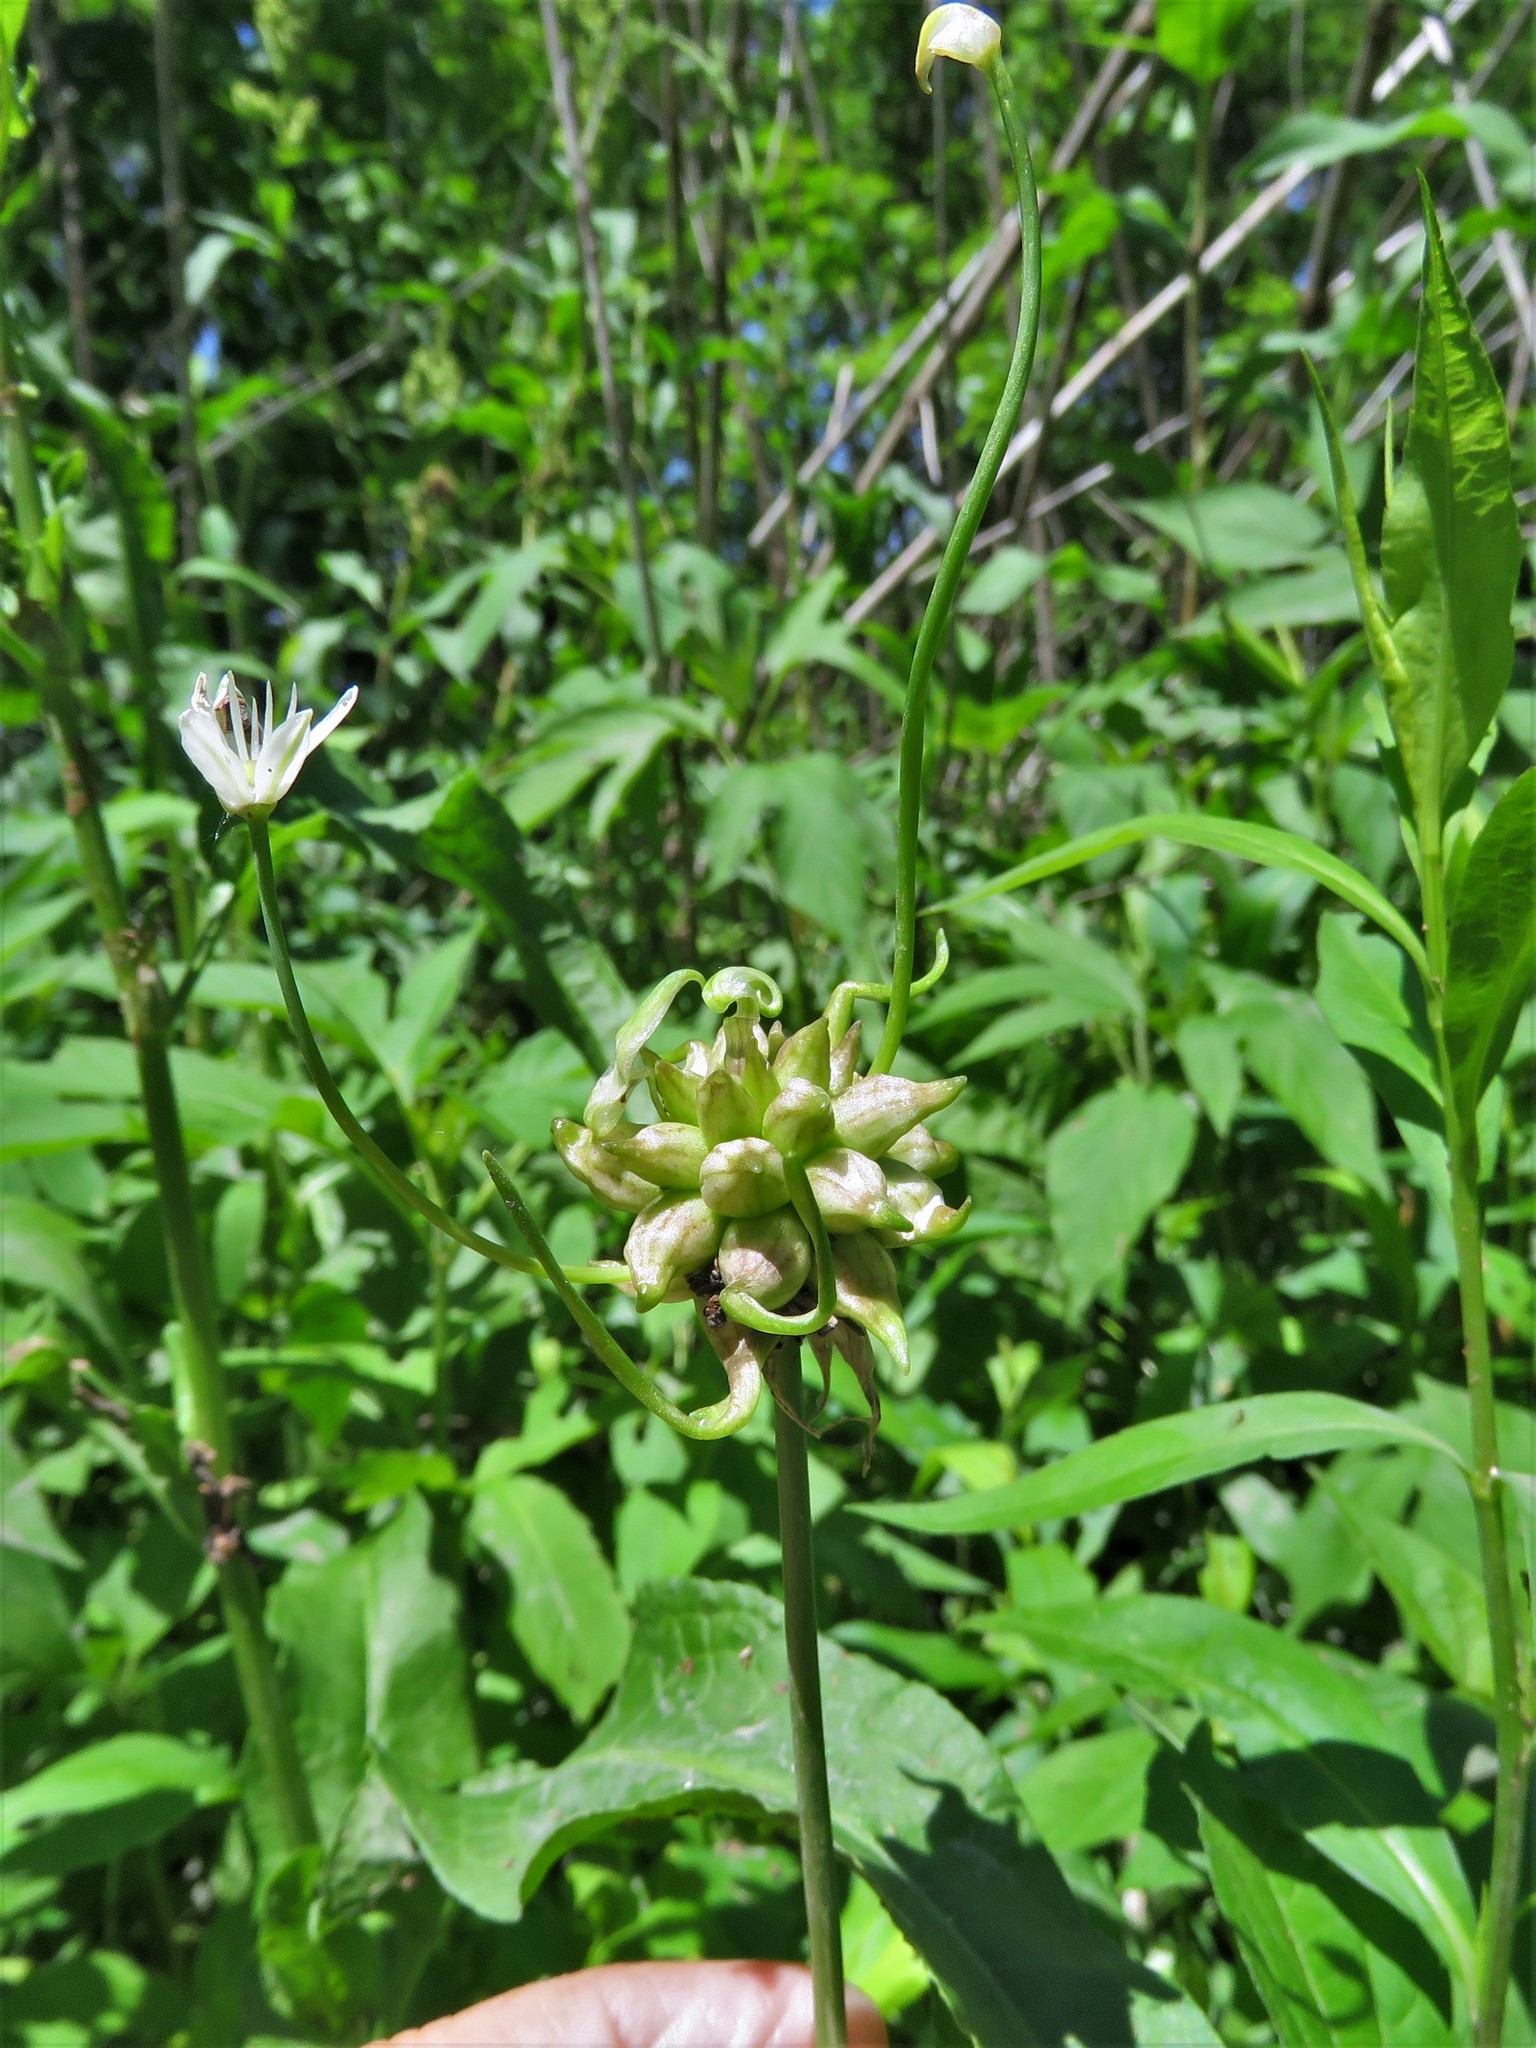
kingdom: Plantae
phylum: Tracheophyta
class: Liliopsida
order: Asparagales
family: Amaryllidaceae
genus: Allium
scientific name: Allium canadense
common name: Meadow garlic
